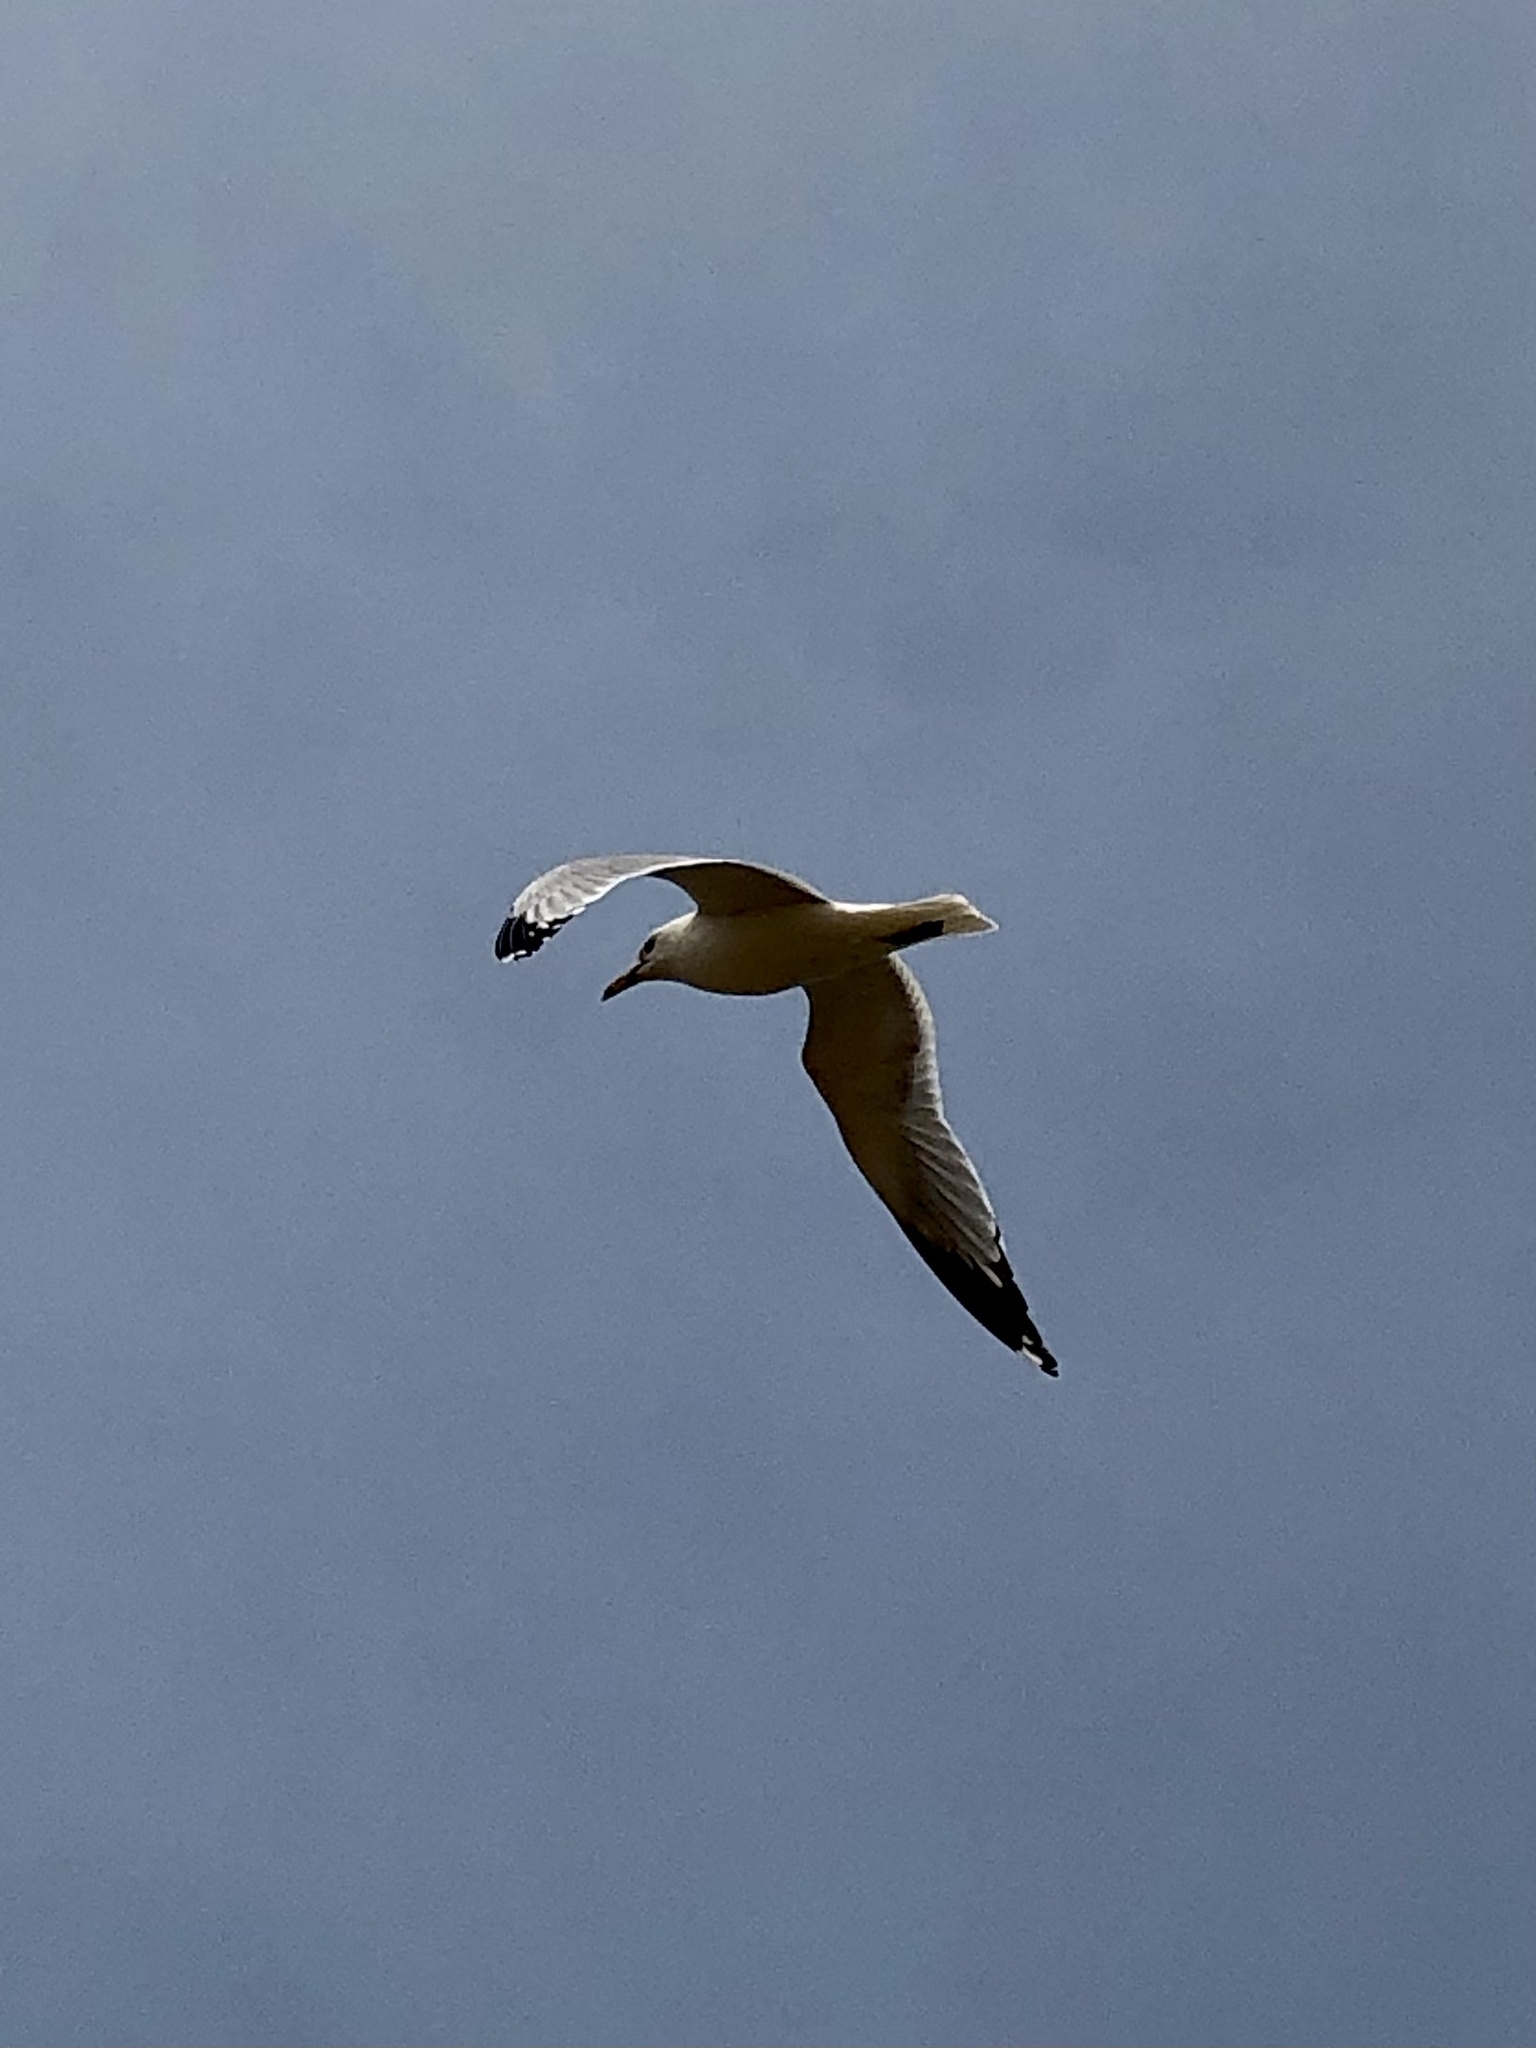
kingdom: Animalia
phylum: Chordata
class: Aves
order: Charadriiformes
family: Laridae
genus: Larus
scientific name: Larus delawarensis
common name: Ring-billed gull
